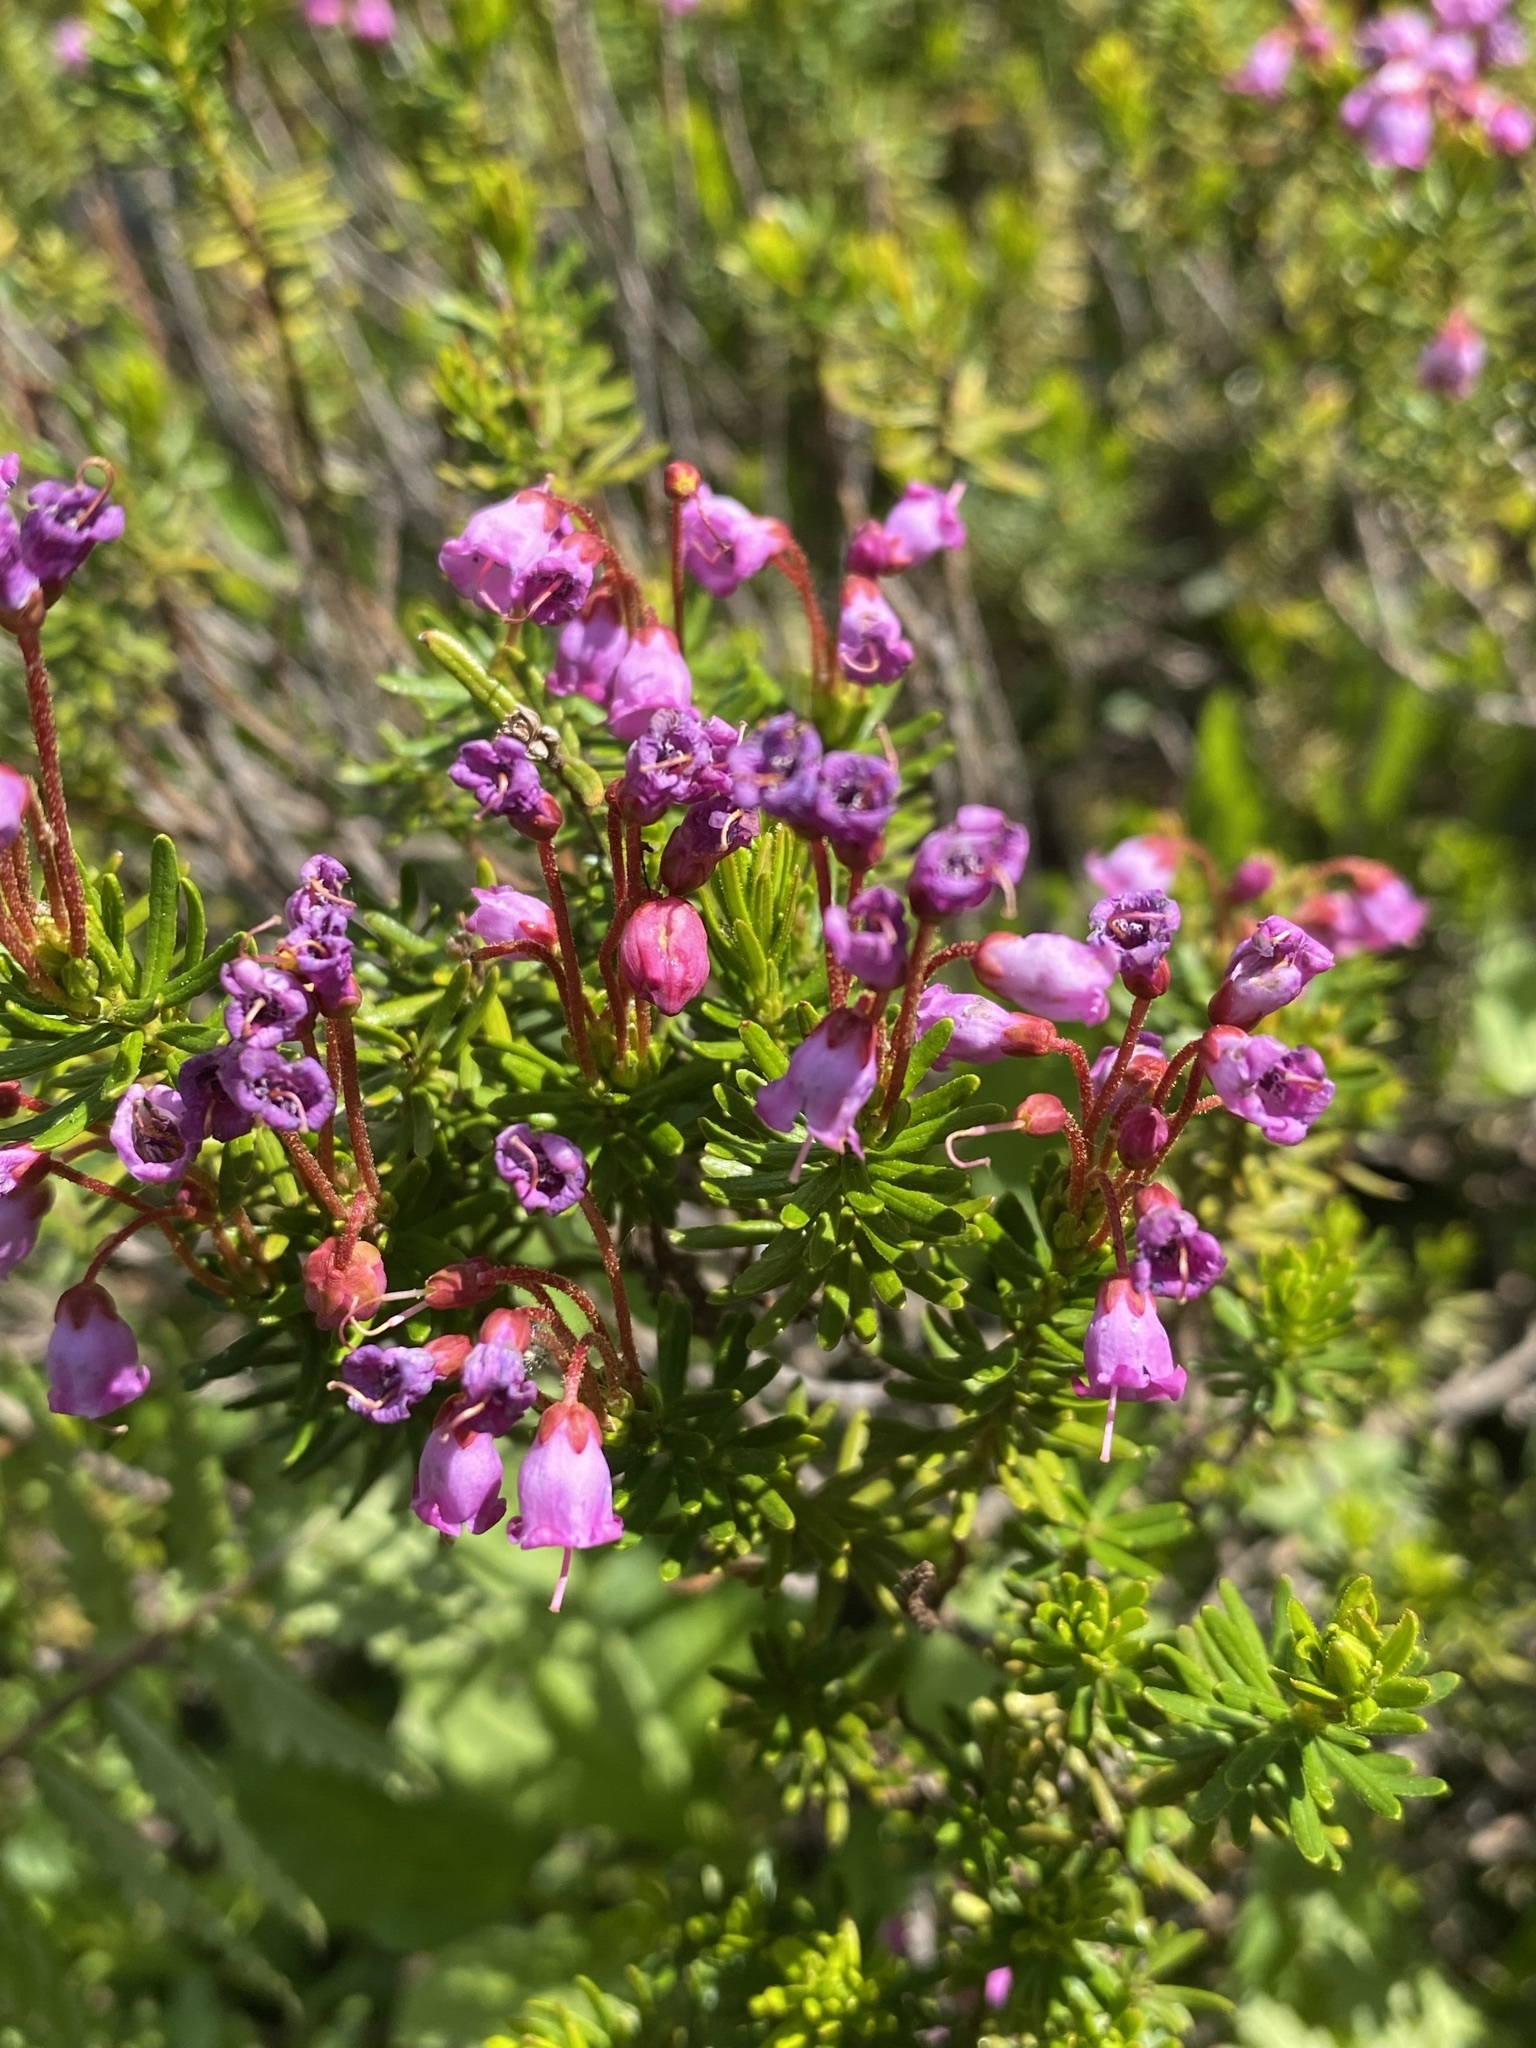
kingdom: Plantae
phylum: Tracheophyta
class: Magnoliopsida
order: Ericales
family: Ericaceae
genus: Phyllodoce
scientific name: Phyllodoce empetriformis
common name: Pink mountain heather
